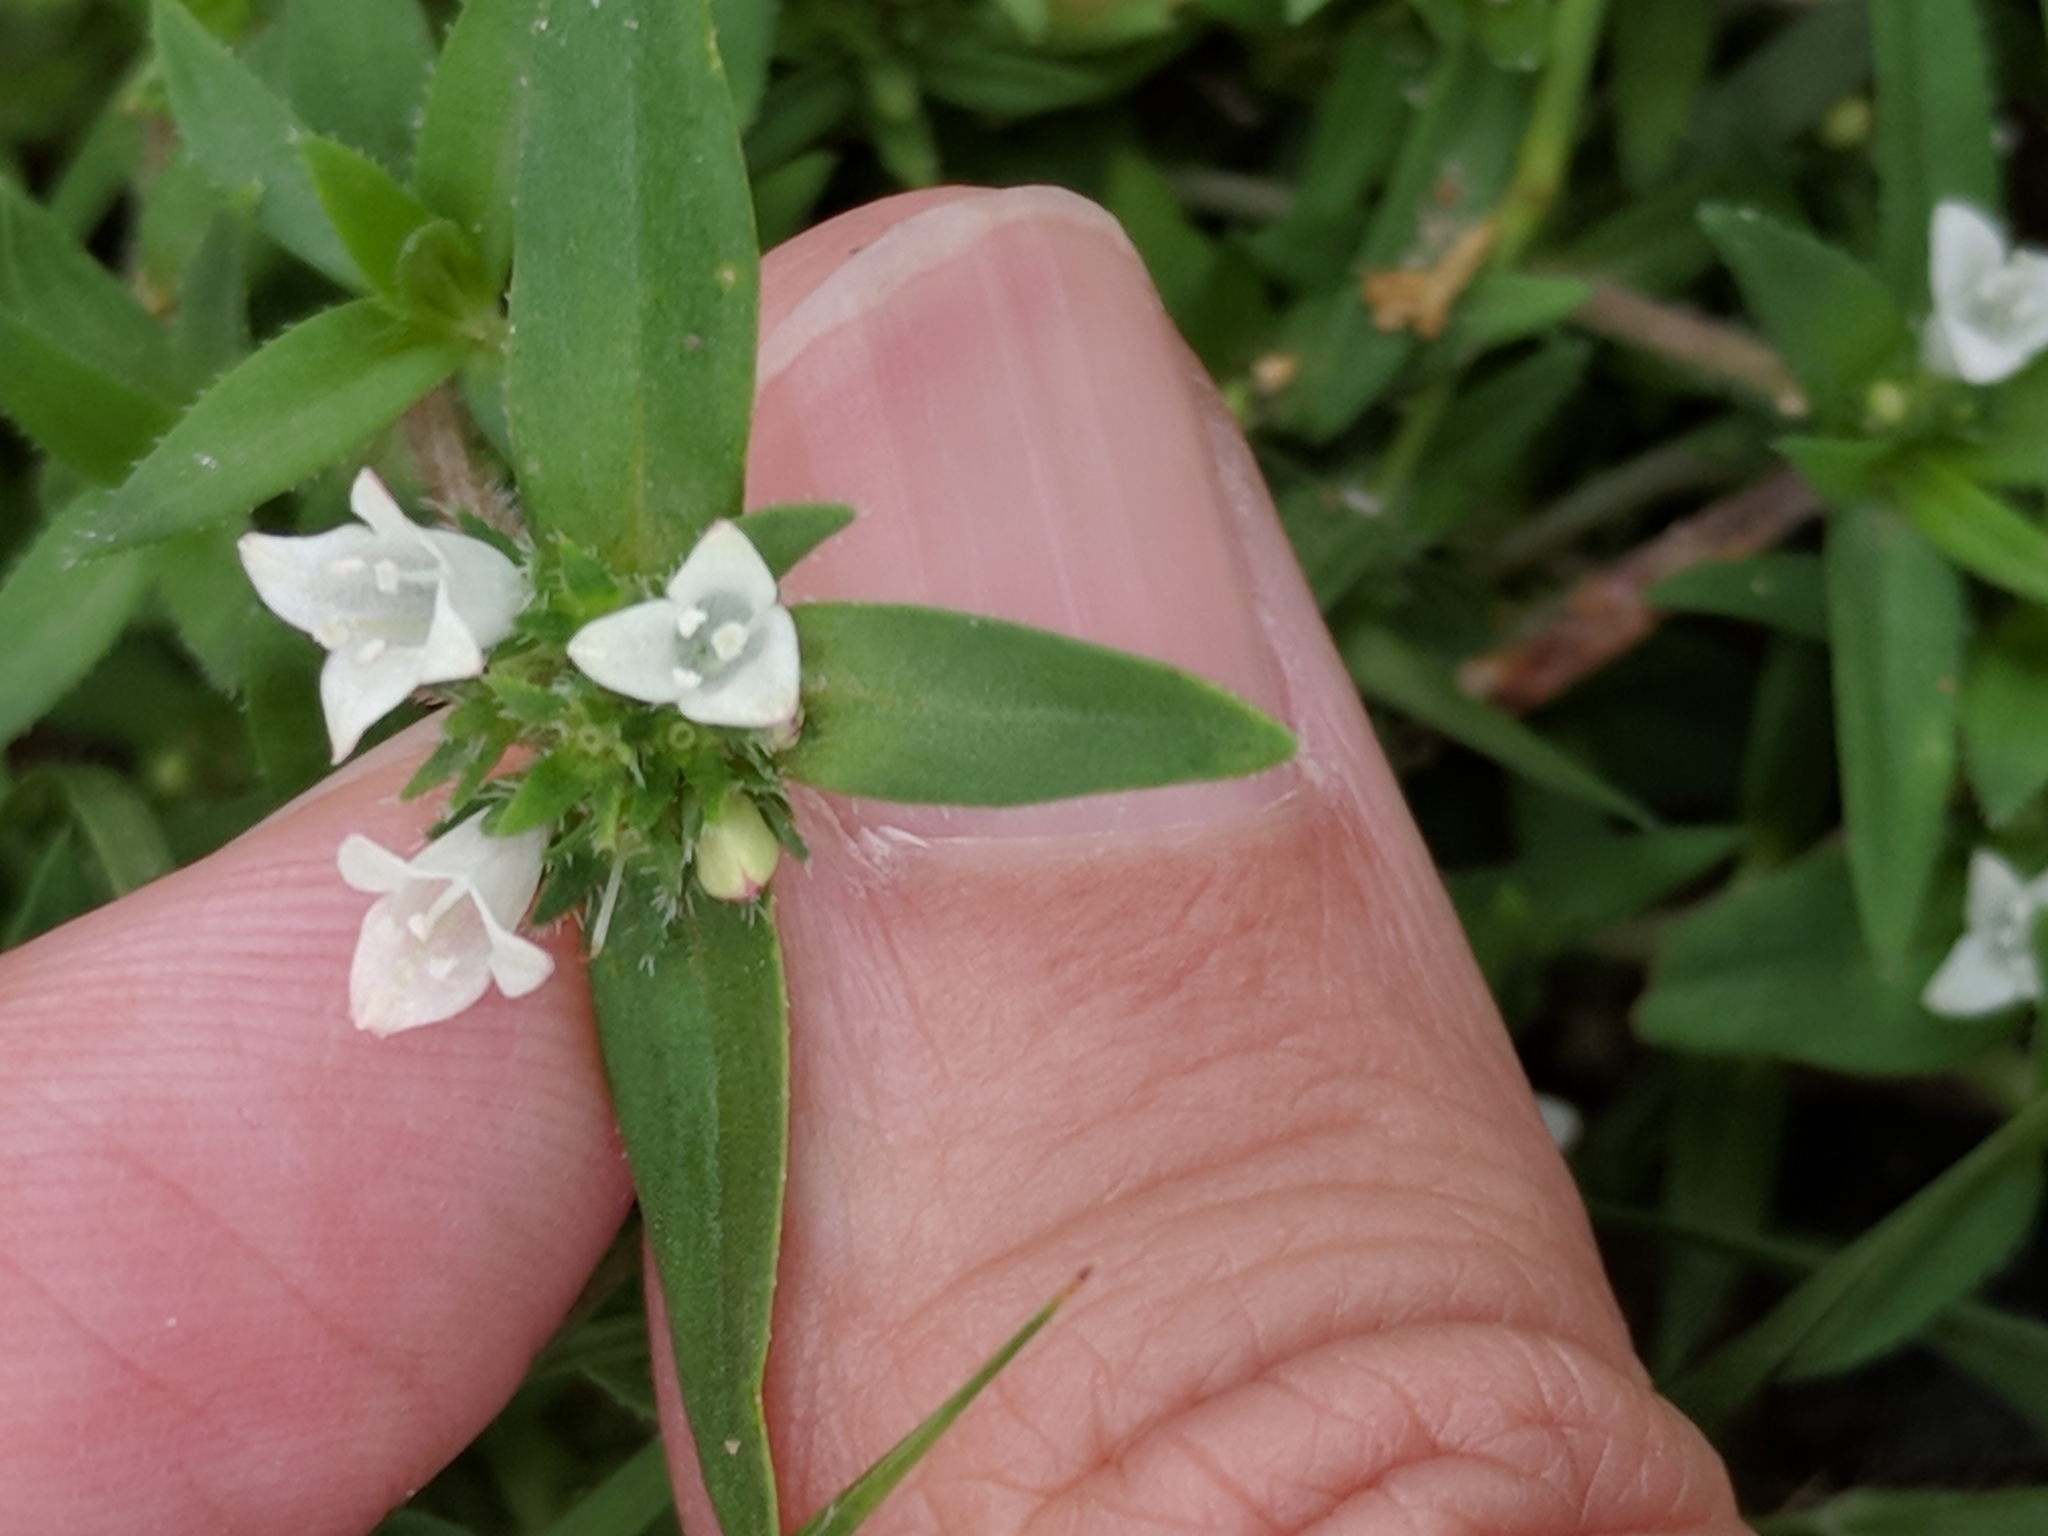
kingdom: Plantae
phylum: Tracheophyta
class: Magnoliopsida
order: Gentianales
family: Rubiaceae
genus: Richardia
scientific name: Richardia tricocca
